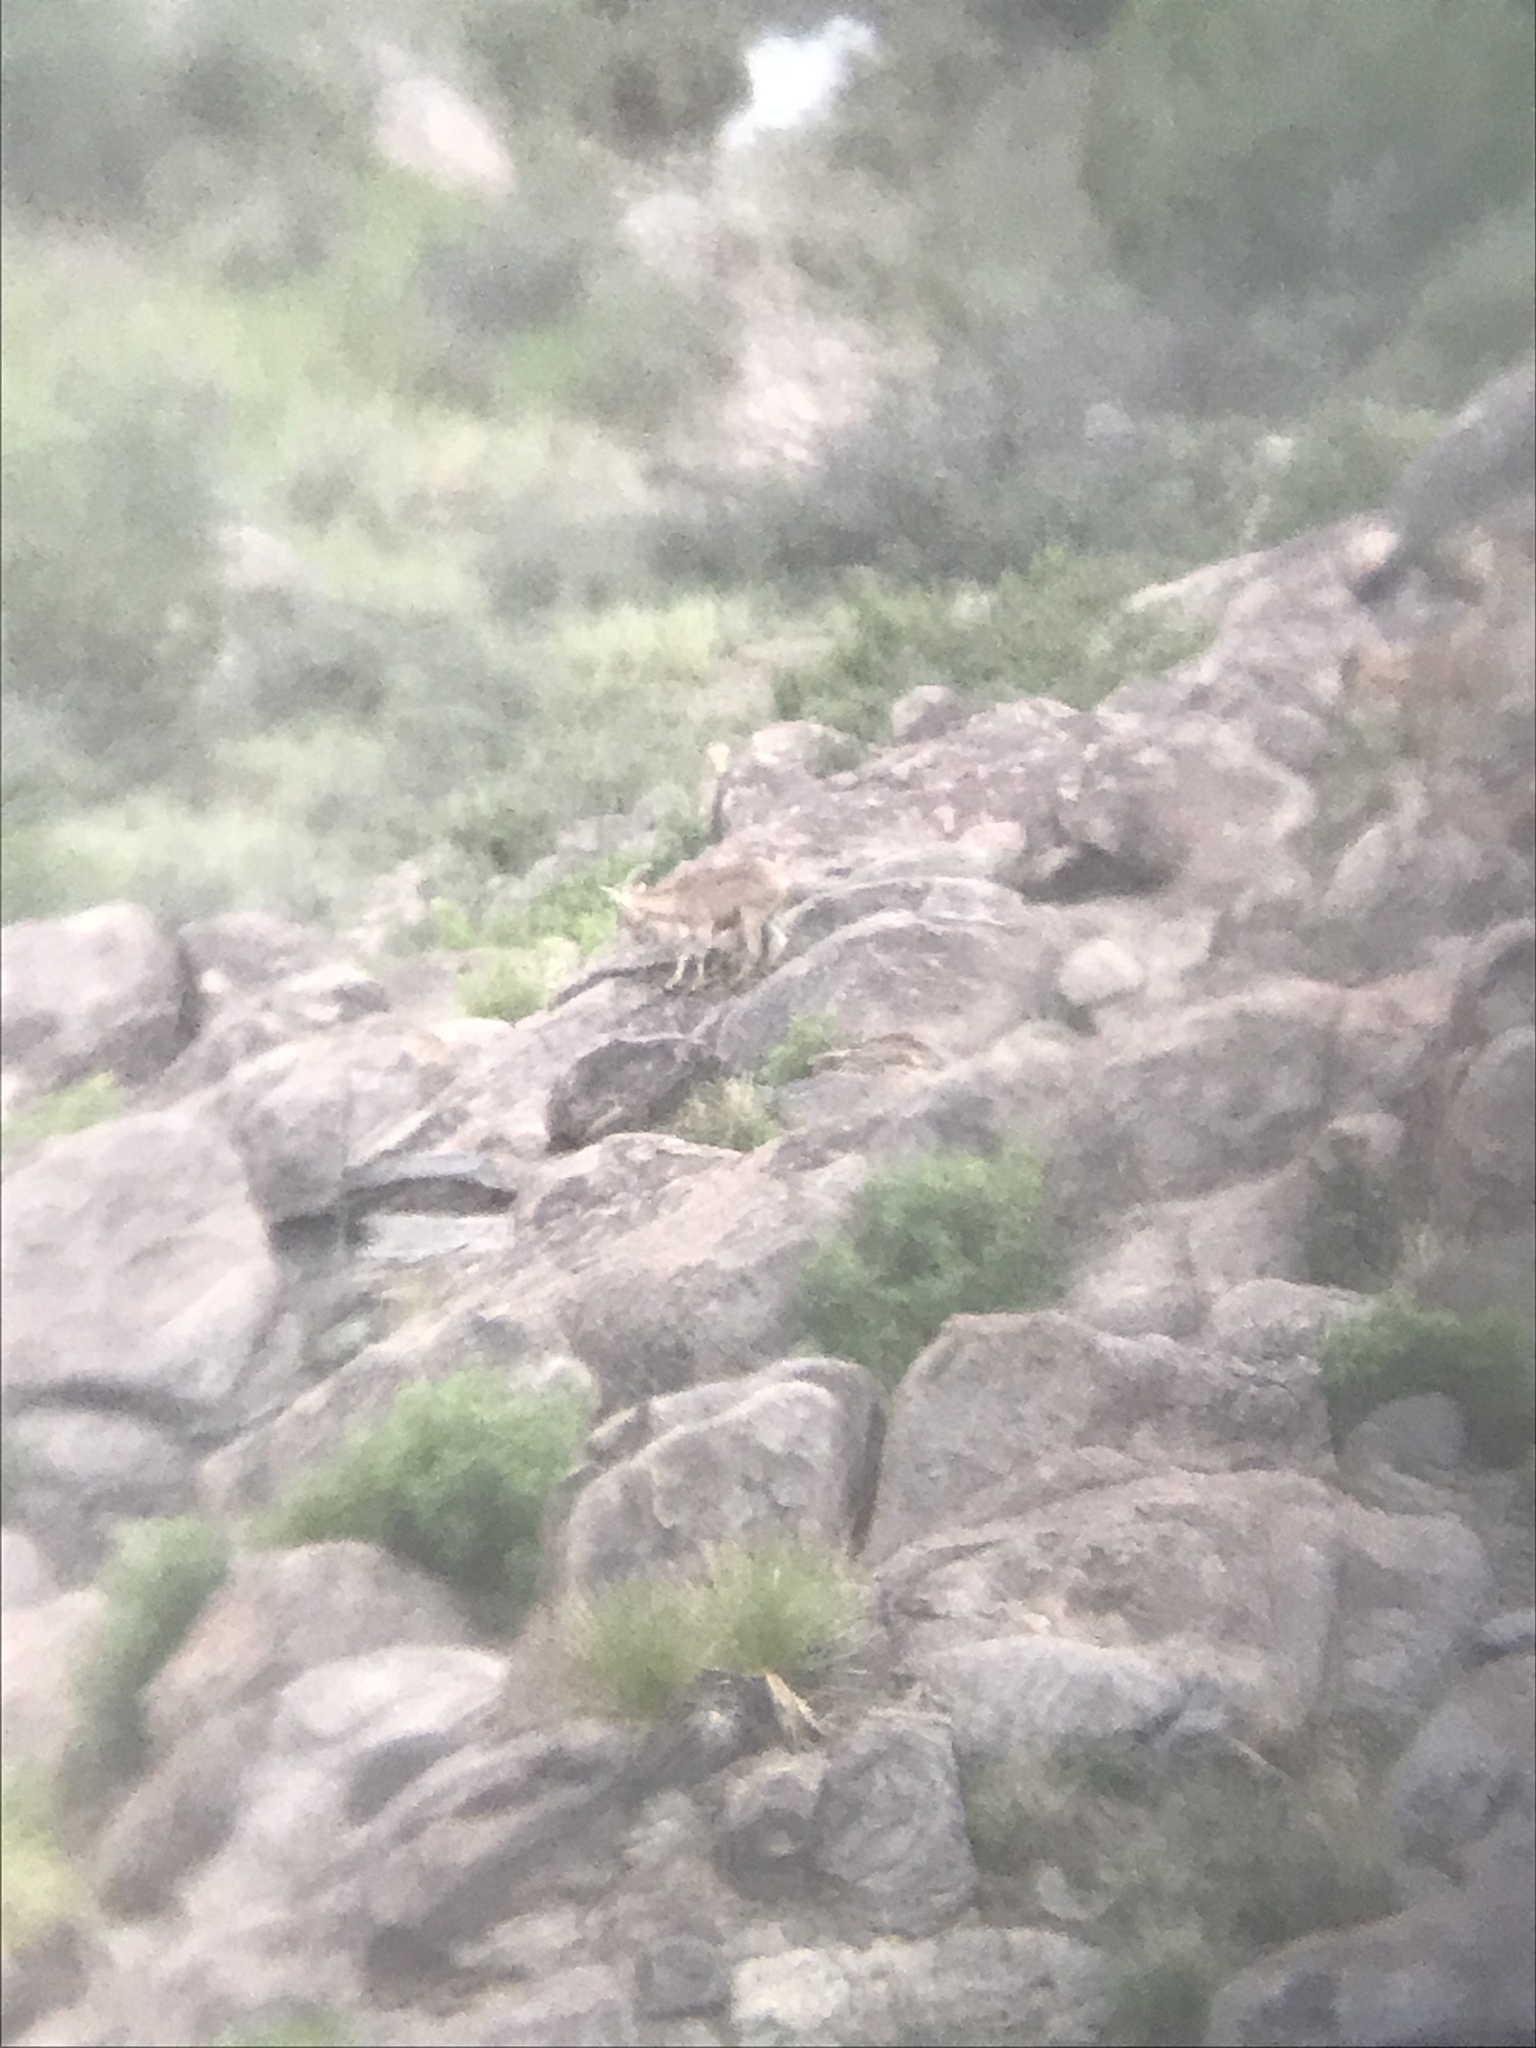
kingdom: Animalia
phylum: Chordata
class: Mammalia
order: Artiodactyla
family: Bovidae
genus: Ammotragus
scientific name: Ammotragus lervia
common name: Barbary sheep
